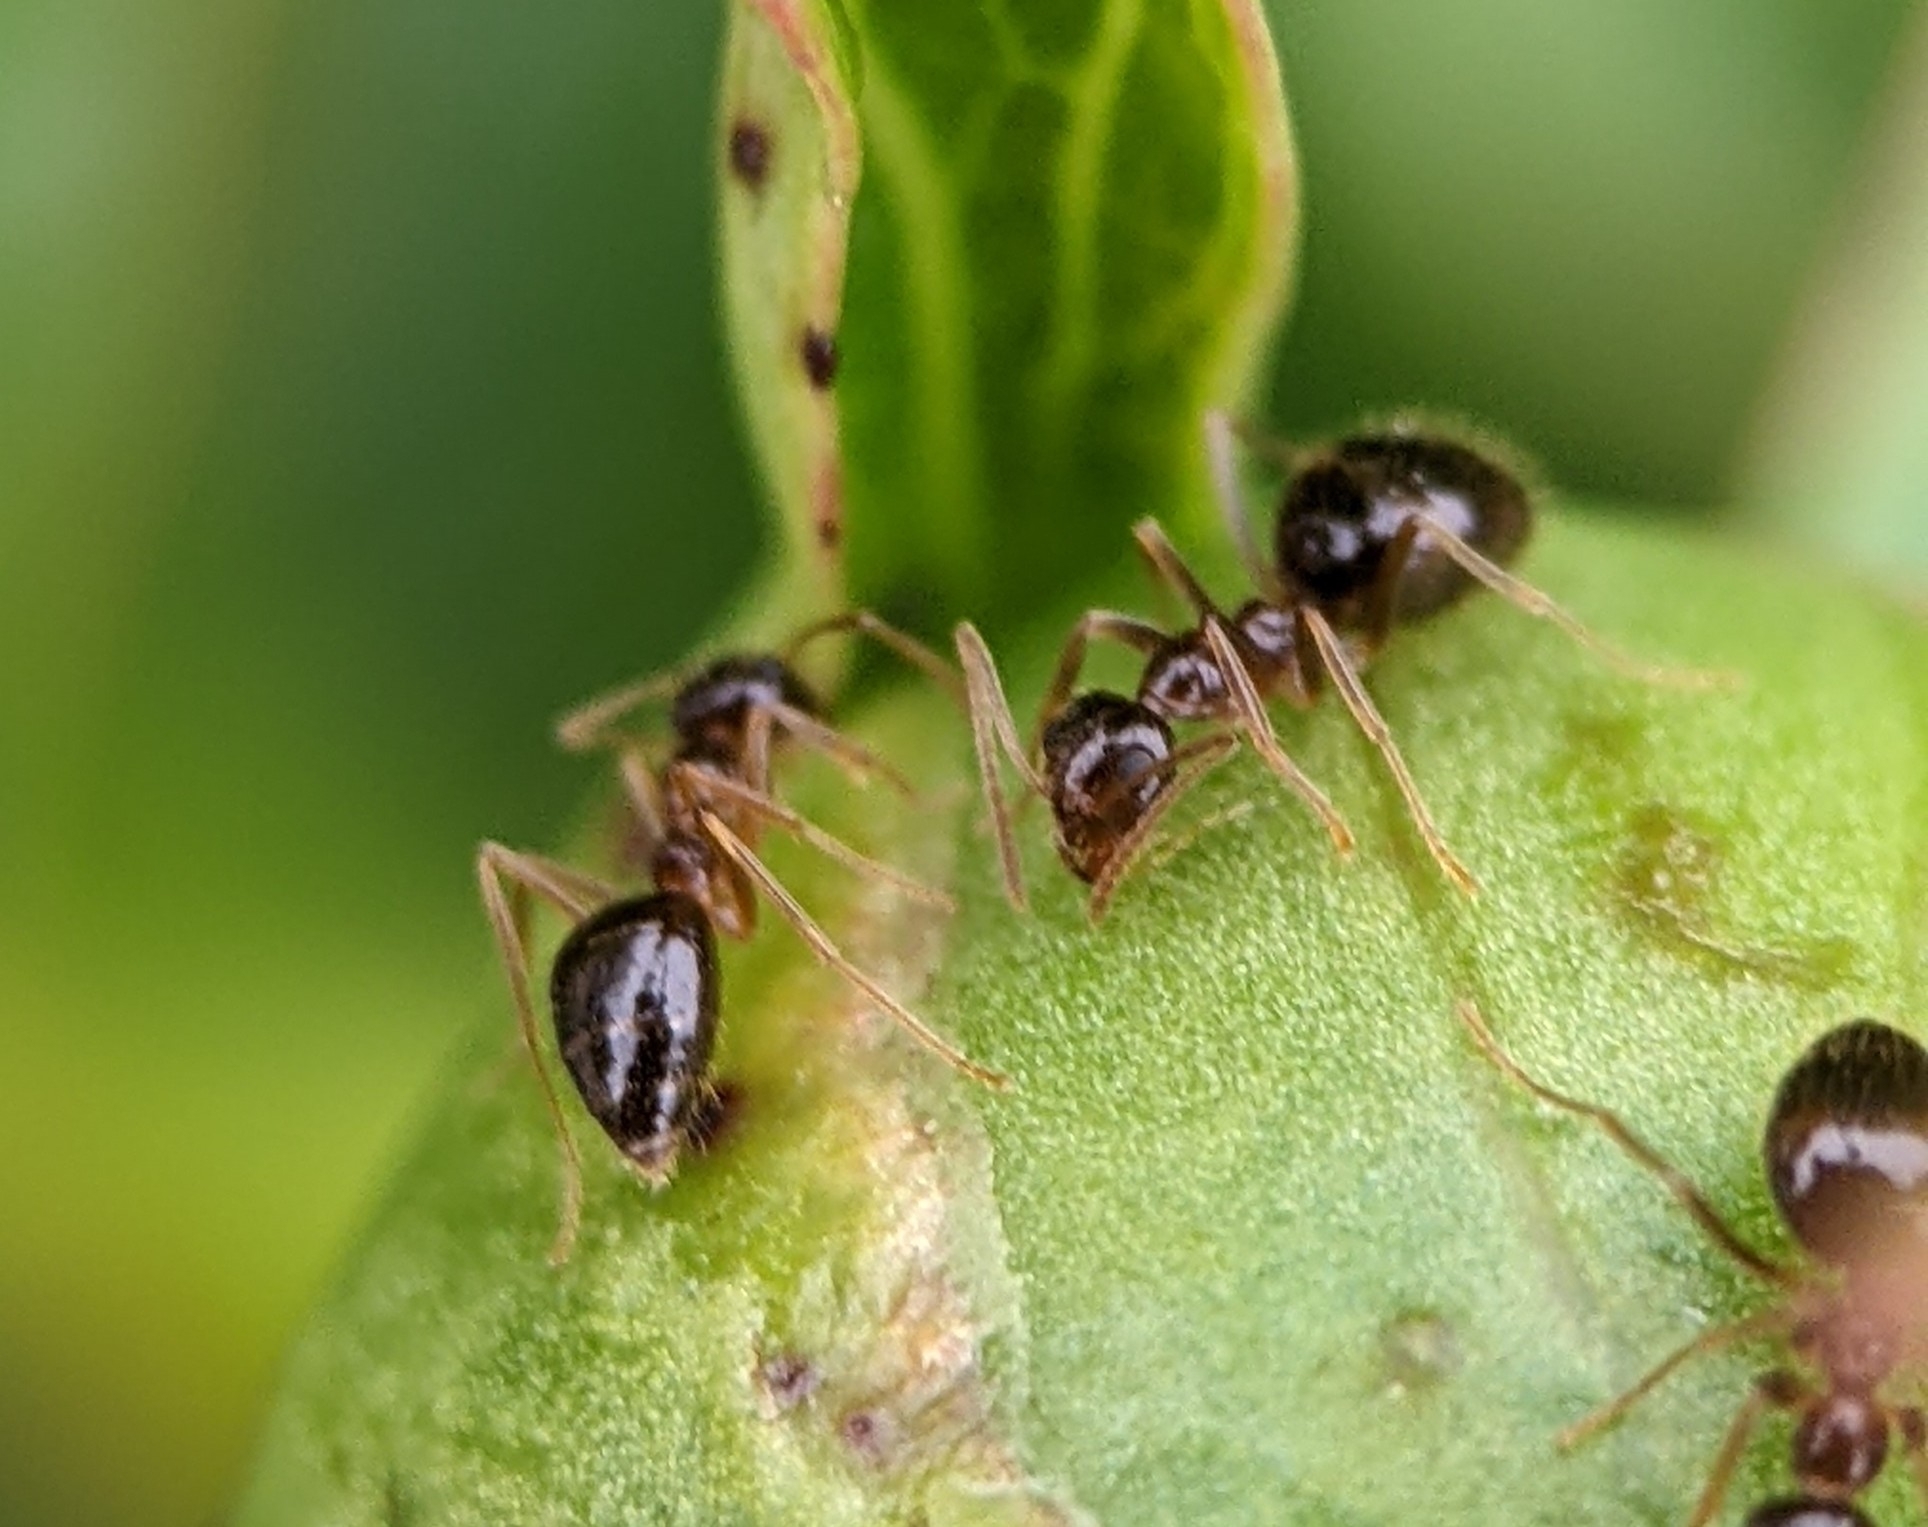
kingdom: Animalia
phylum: Arthropoda
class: Insecta
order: Hymenoptera
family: Formicidae
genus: Prenolepis
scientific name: Prenolepis imparis
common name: Small honey ant
